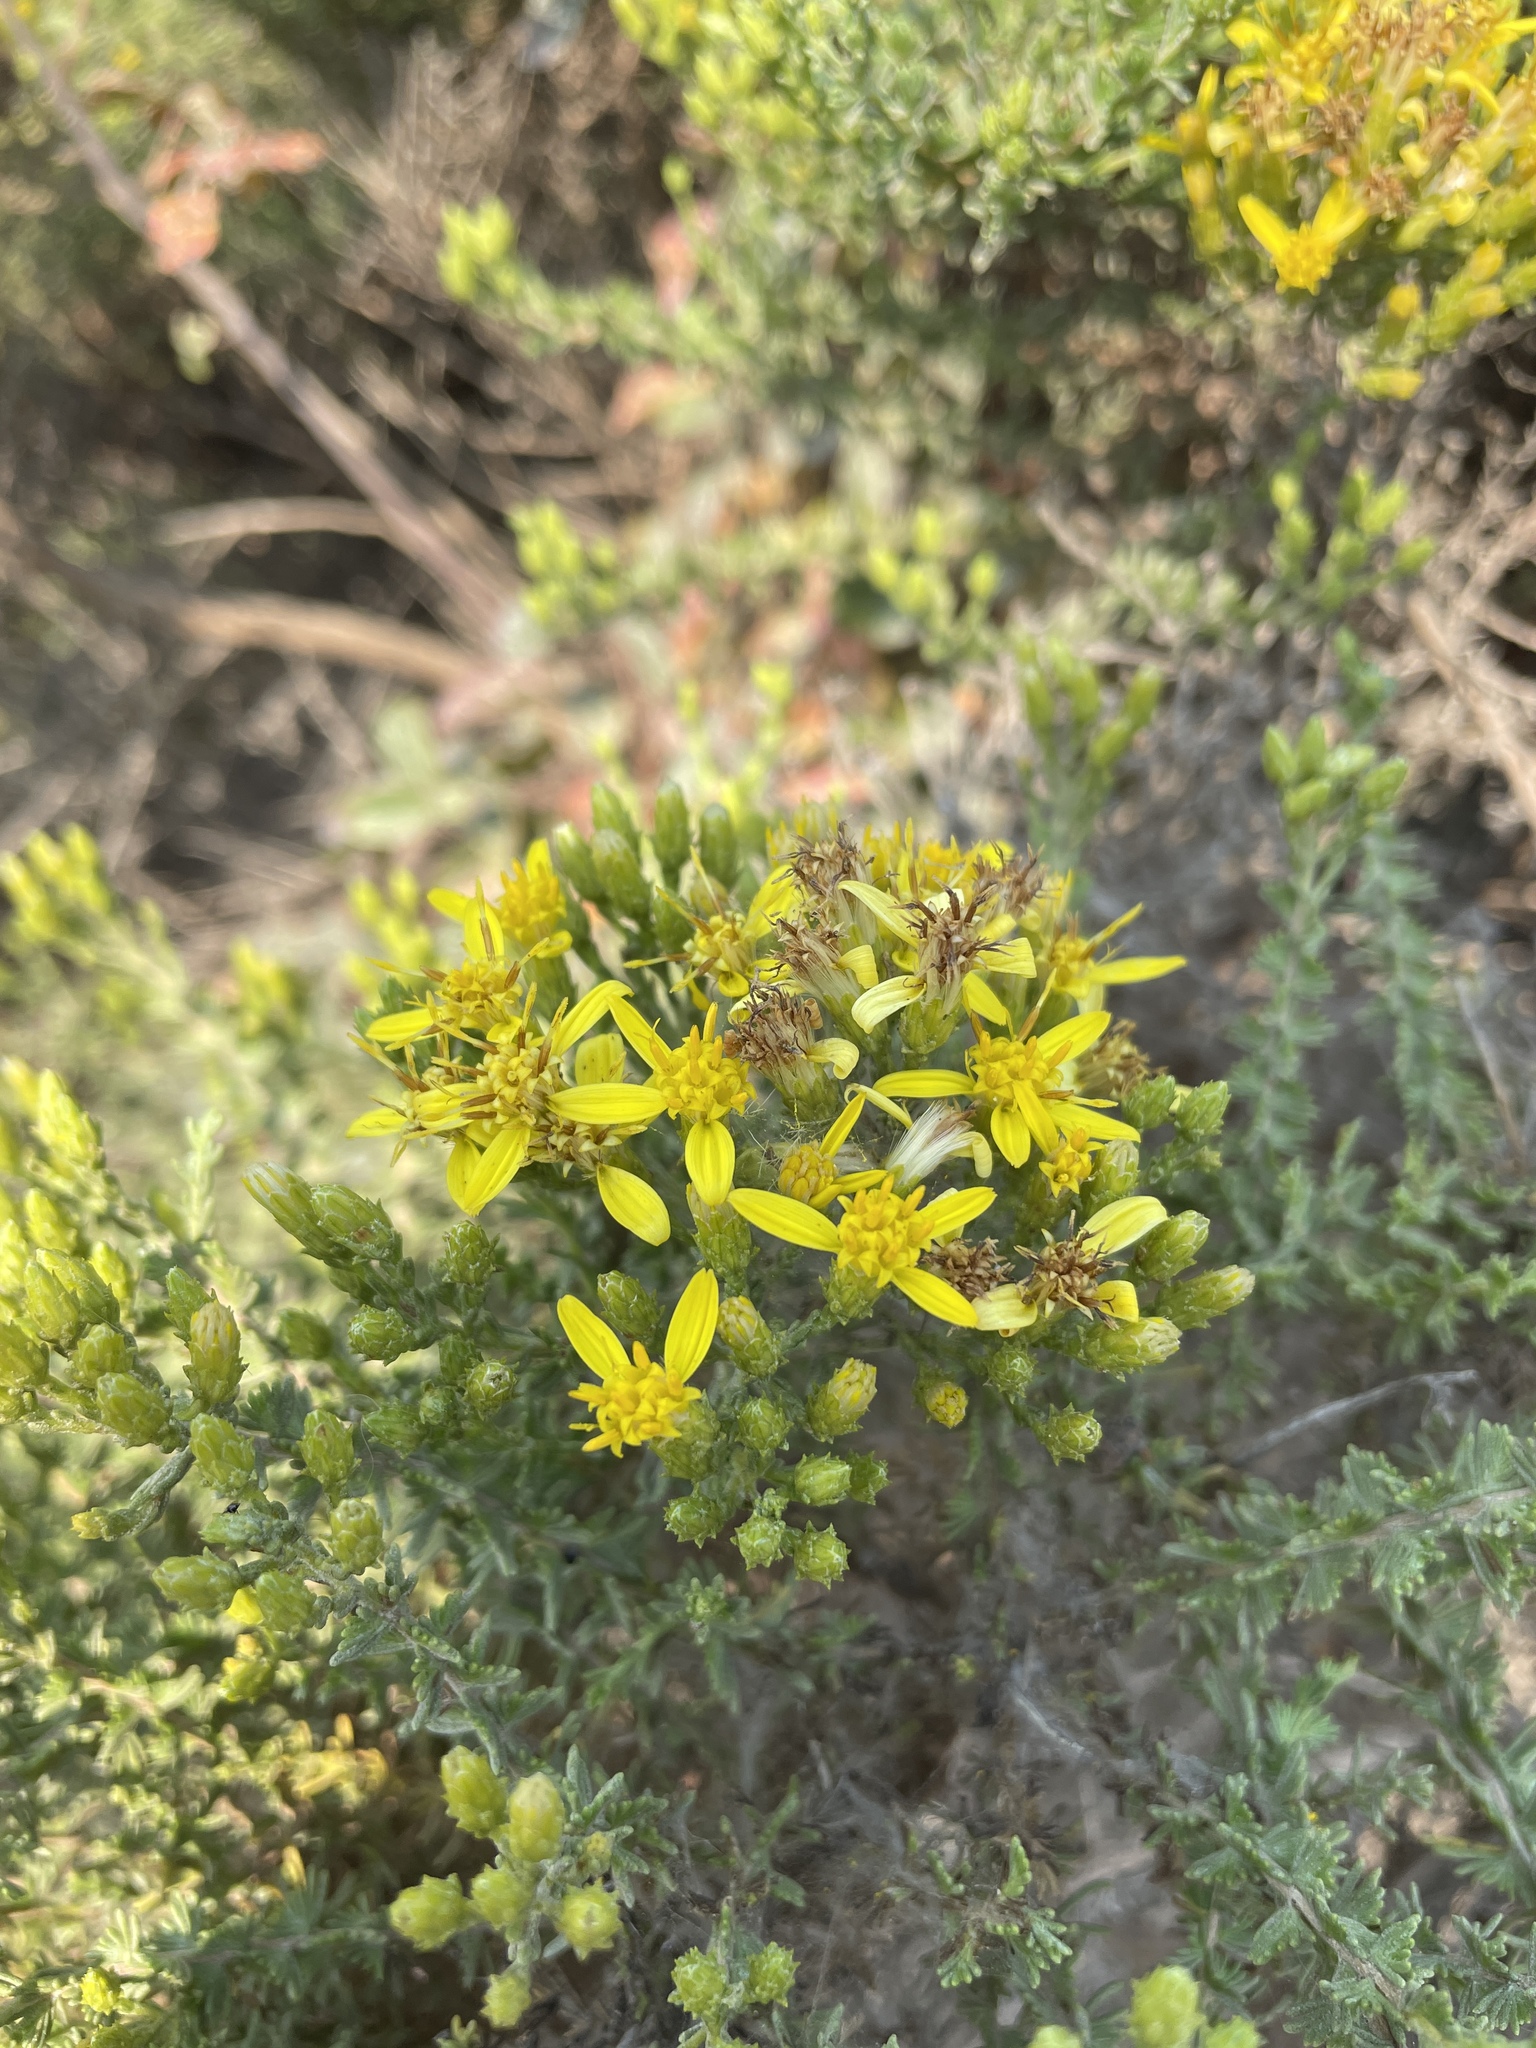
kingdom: Plantae
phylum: Tracheophyta
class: Magnoliopsida
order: Asterales
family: Asteraceae
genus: Ericameria
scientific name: Ericameria ericoides
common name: California goldenbush
